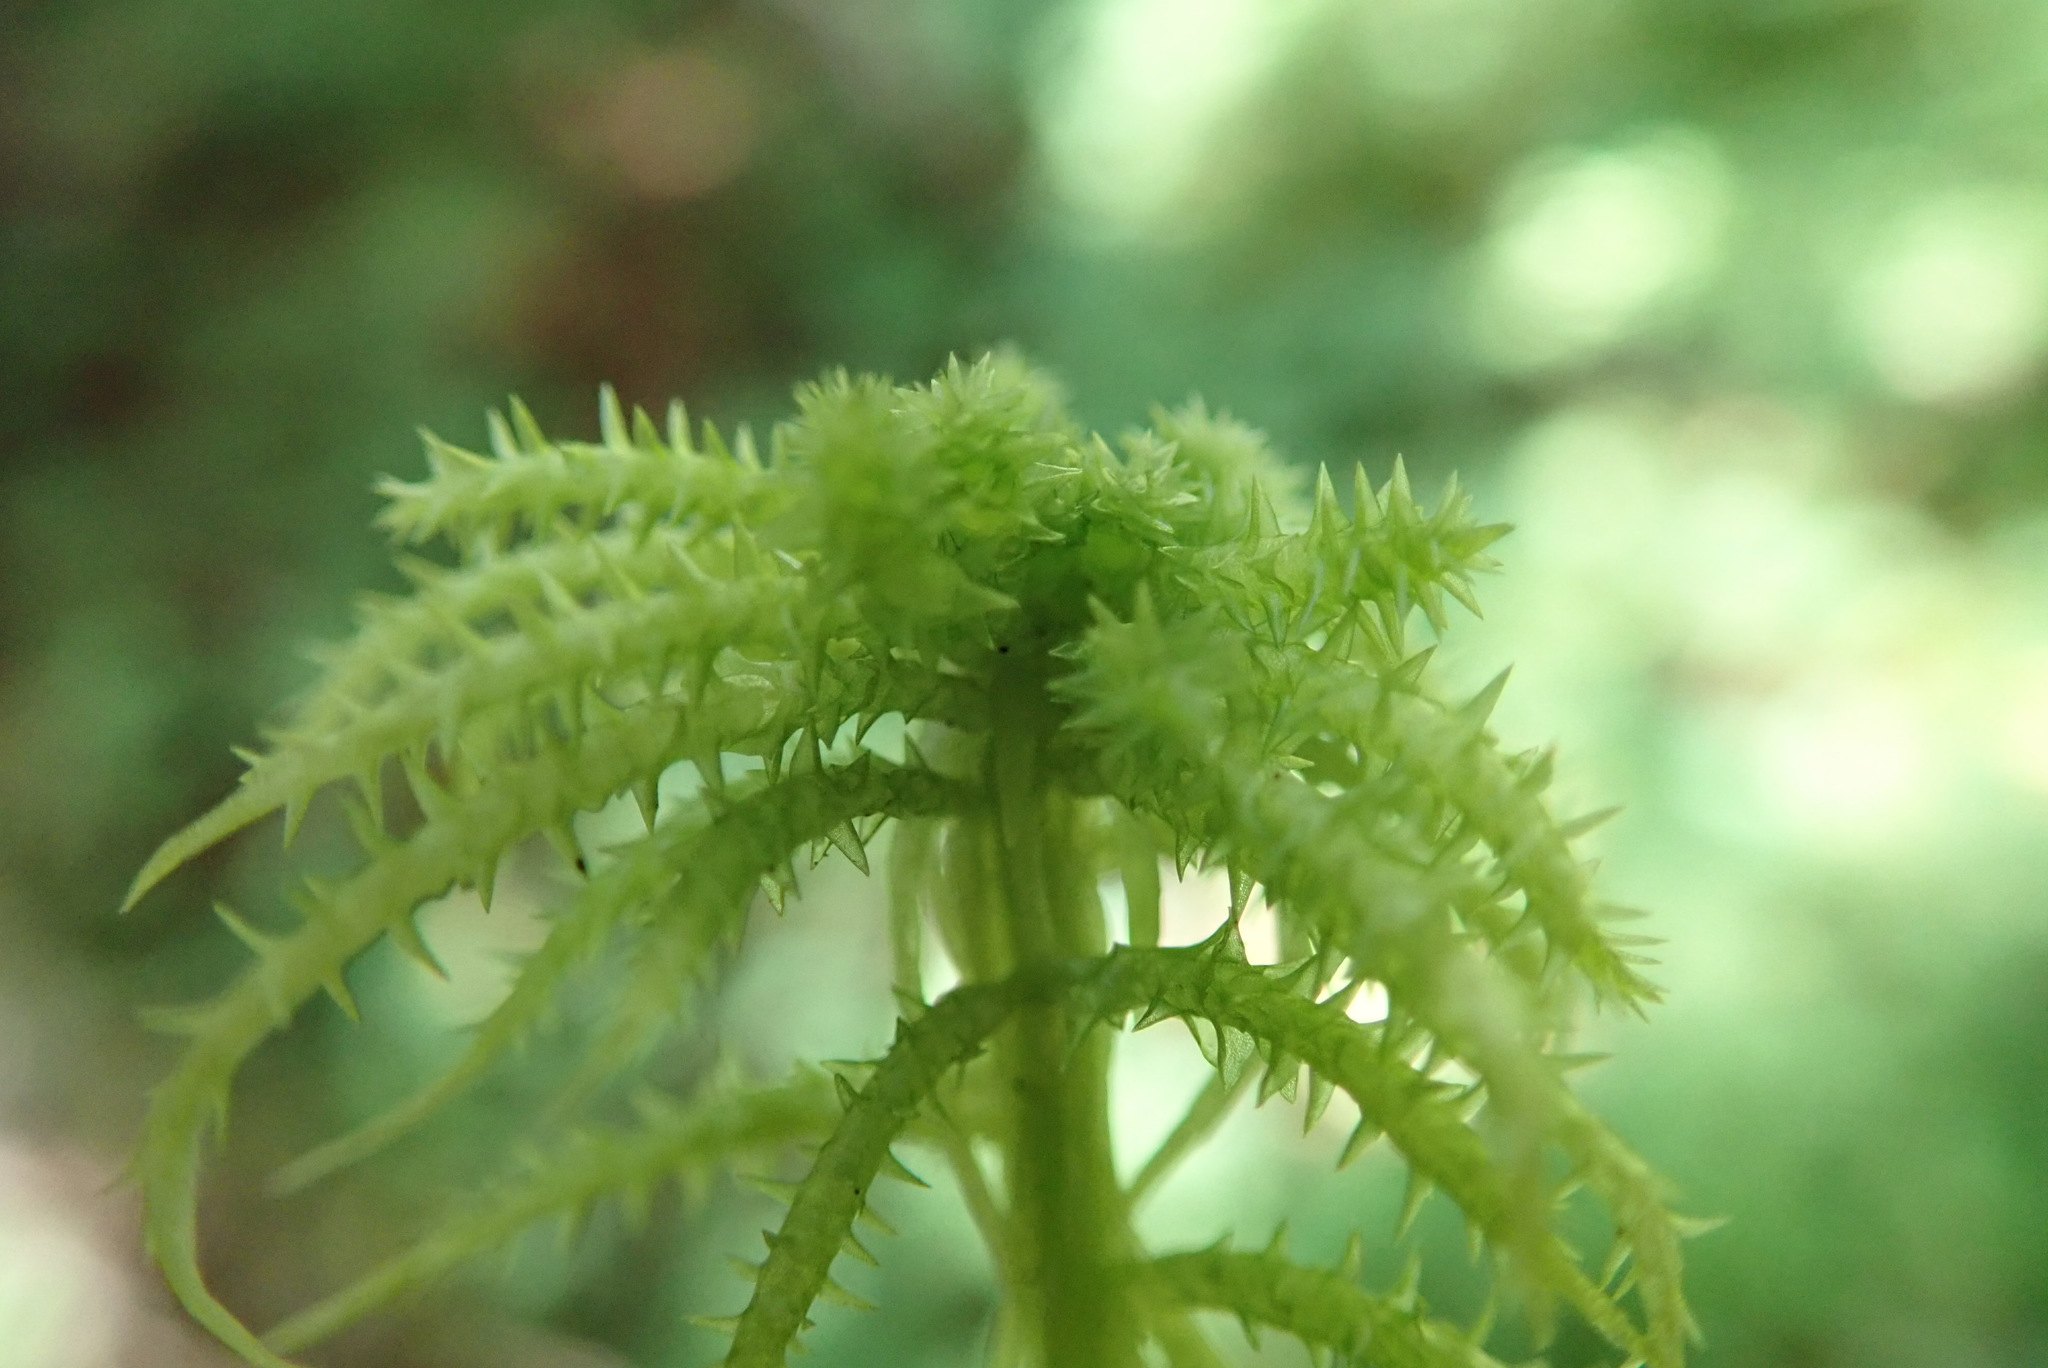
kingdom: Plantae
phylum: Bryophyta
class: Sphagnopsida
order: Sphagnales
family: Sphagnaceae
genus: Sphagnum
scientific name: Sphagnum squarrosum
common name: Shaggy peat moss
